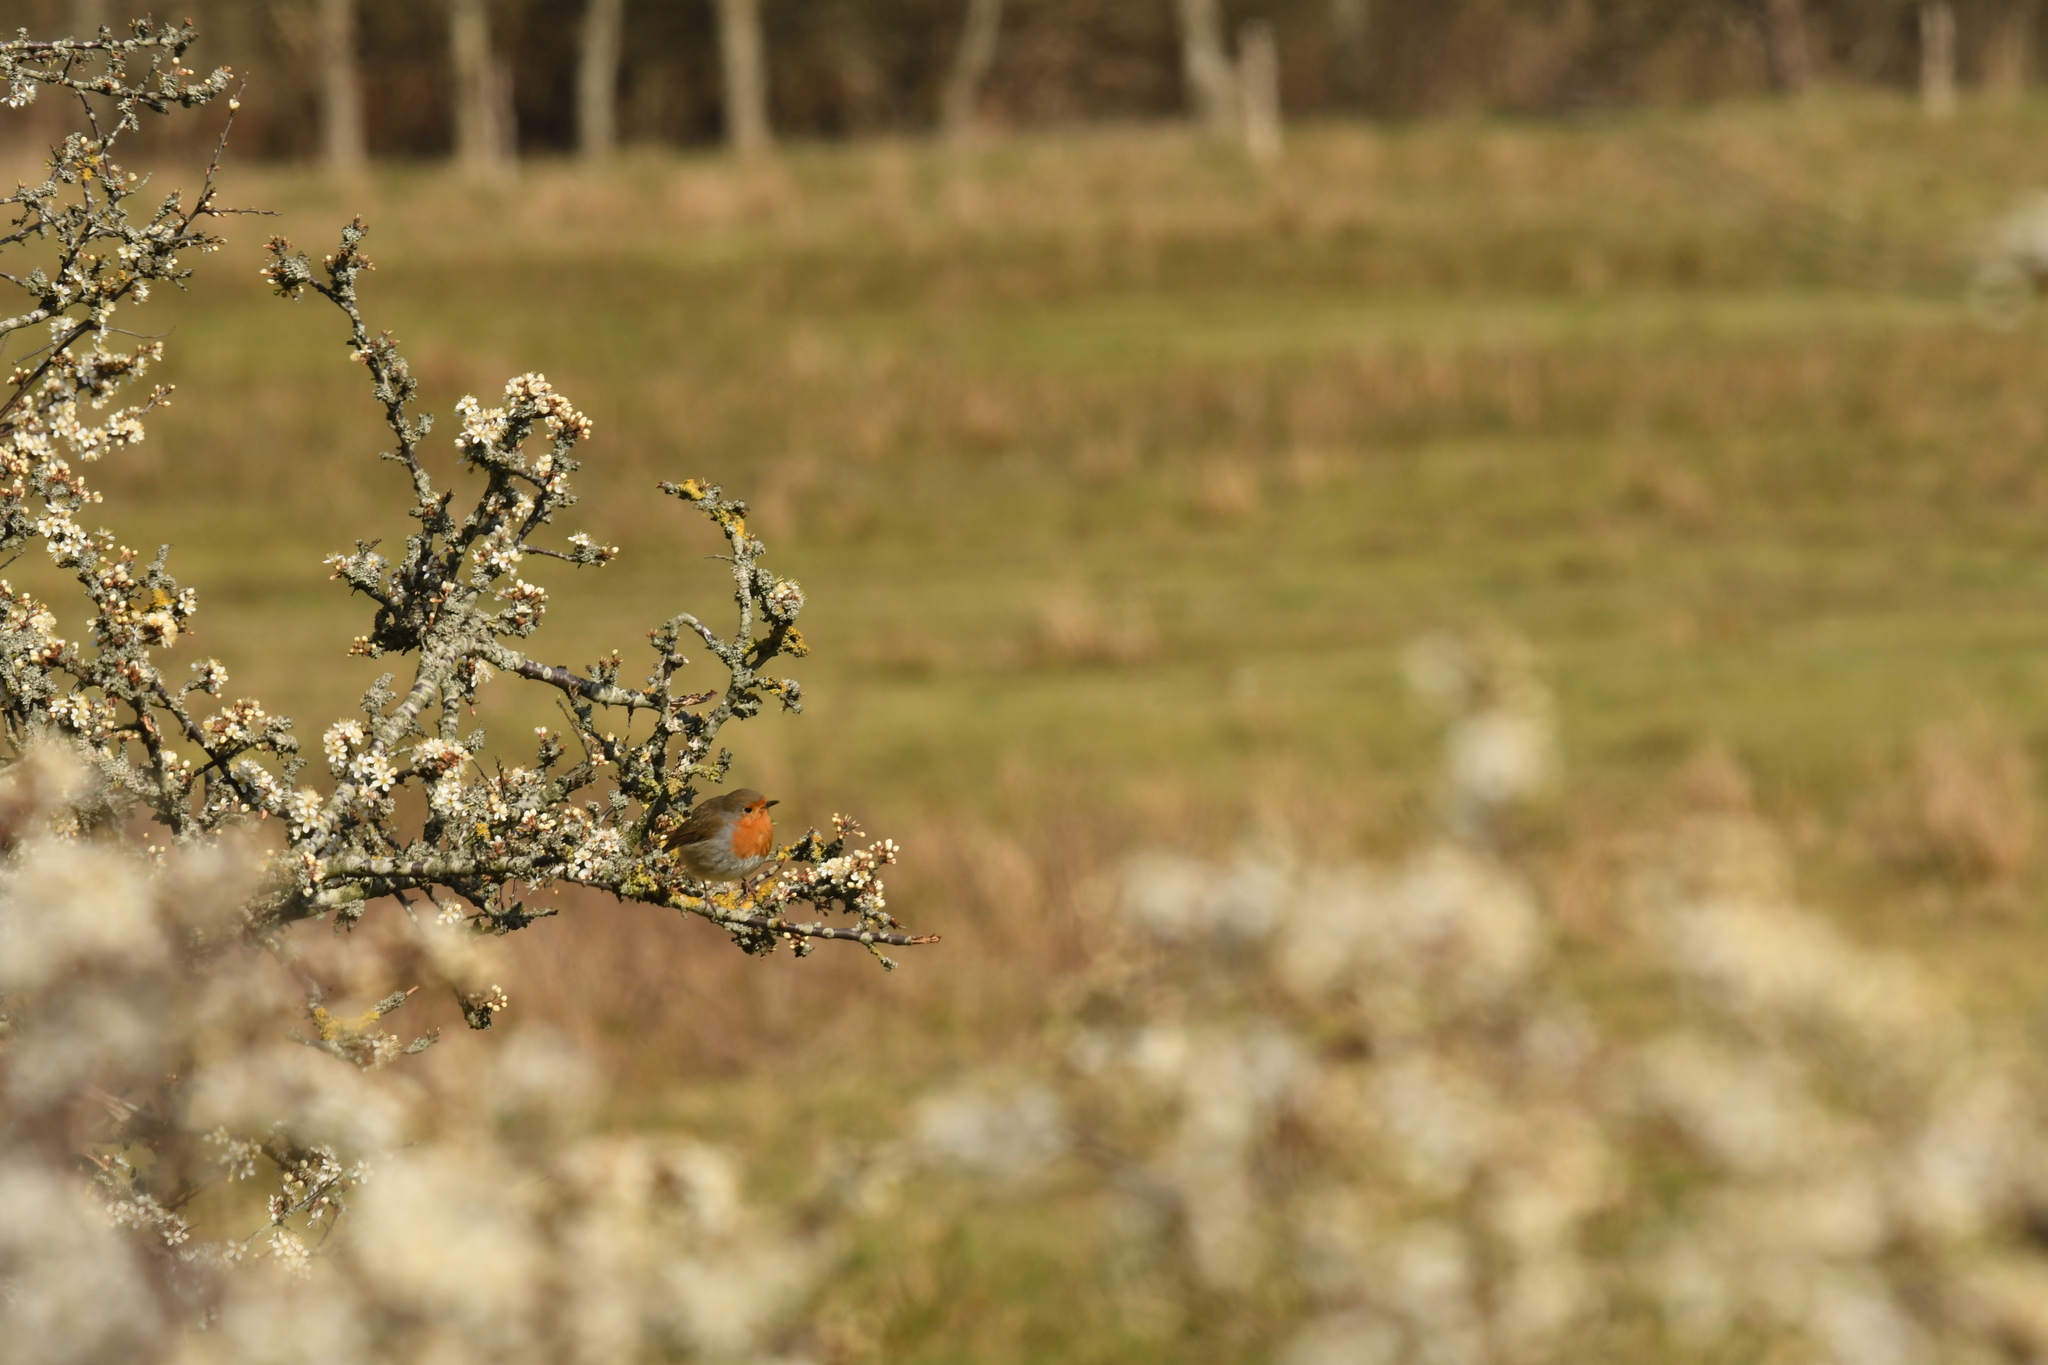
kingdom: Animalia
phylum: Chordata
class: Aves
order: Passeriformes
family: Muscicapidae
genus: Erithacus
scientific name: Erithacus rubecula
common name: European robin
